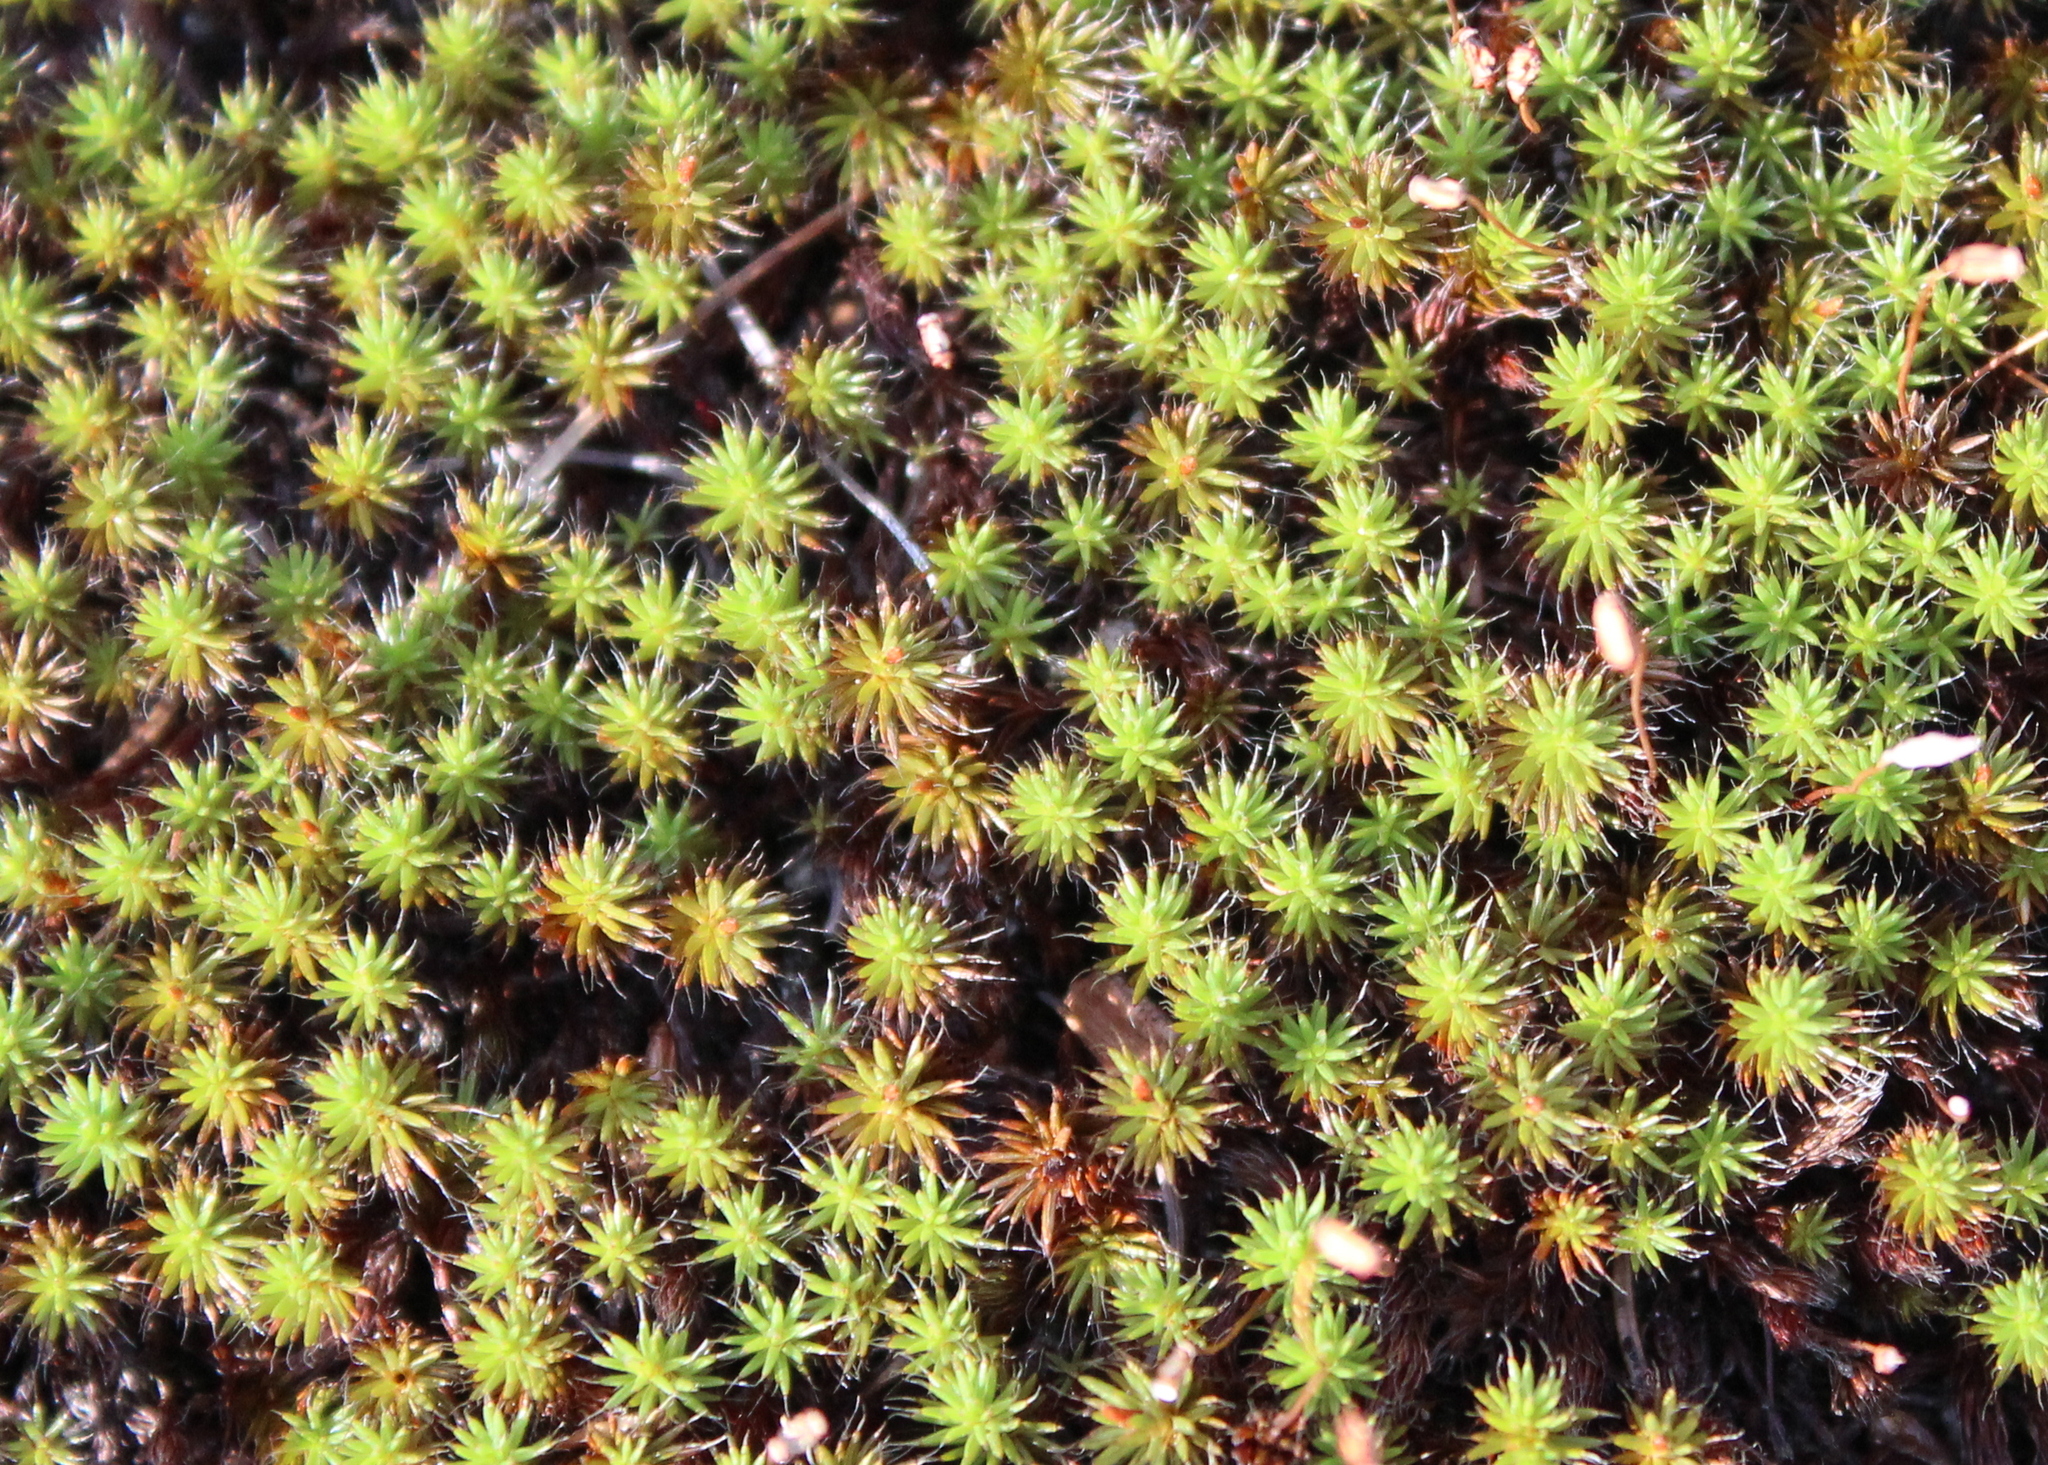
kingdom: Plantae
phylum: Bryophyta
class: Polytrichopsida
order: Polytrichales
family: Polytrichaceae
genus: Polytrichum
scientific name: Polytrichum piliferum
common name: Bristly haircap
